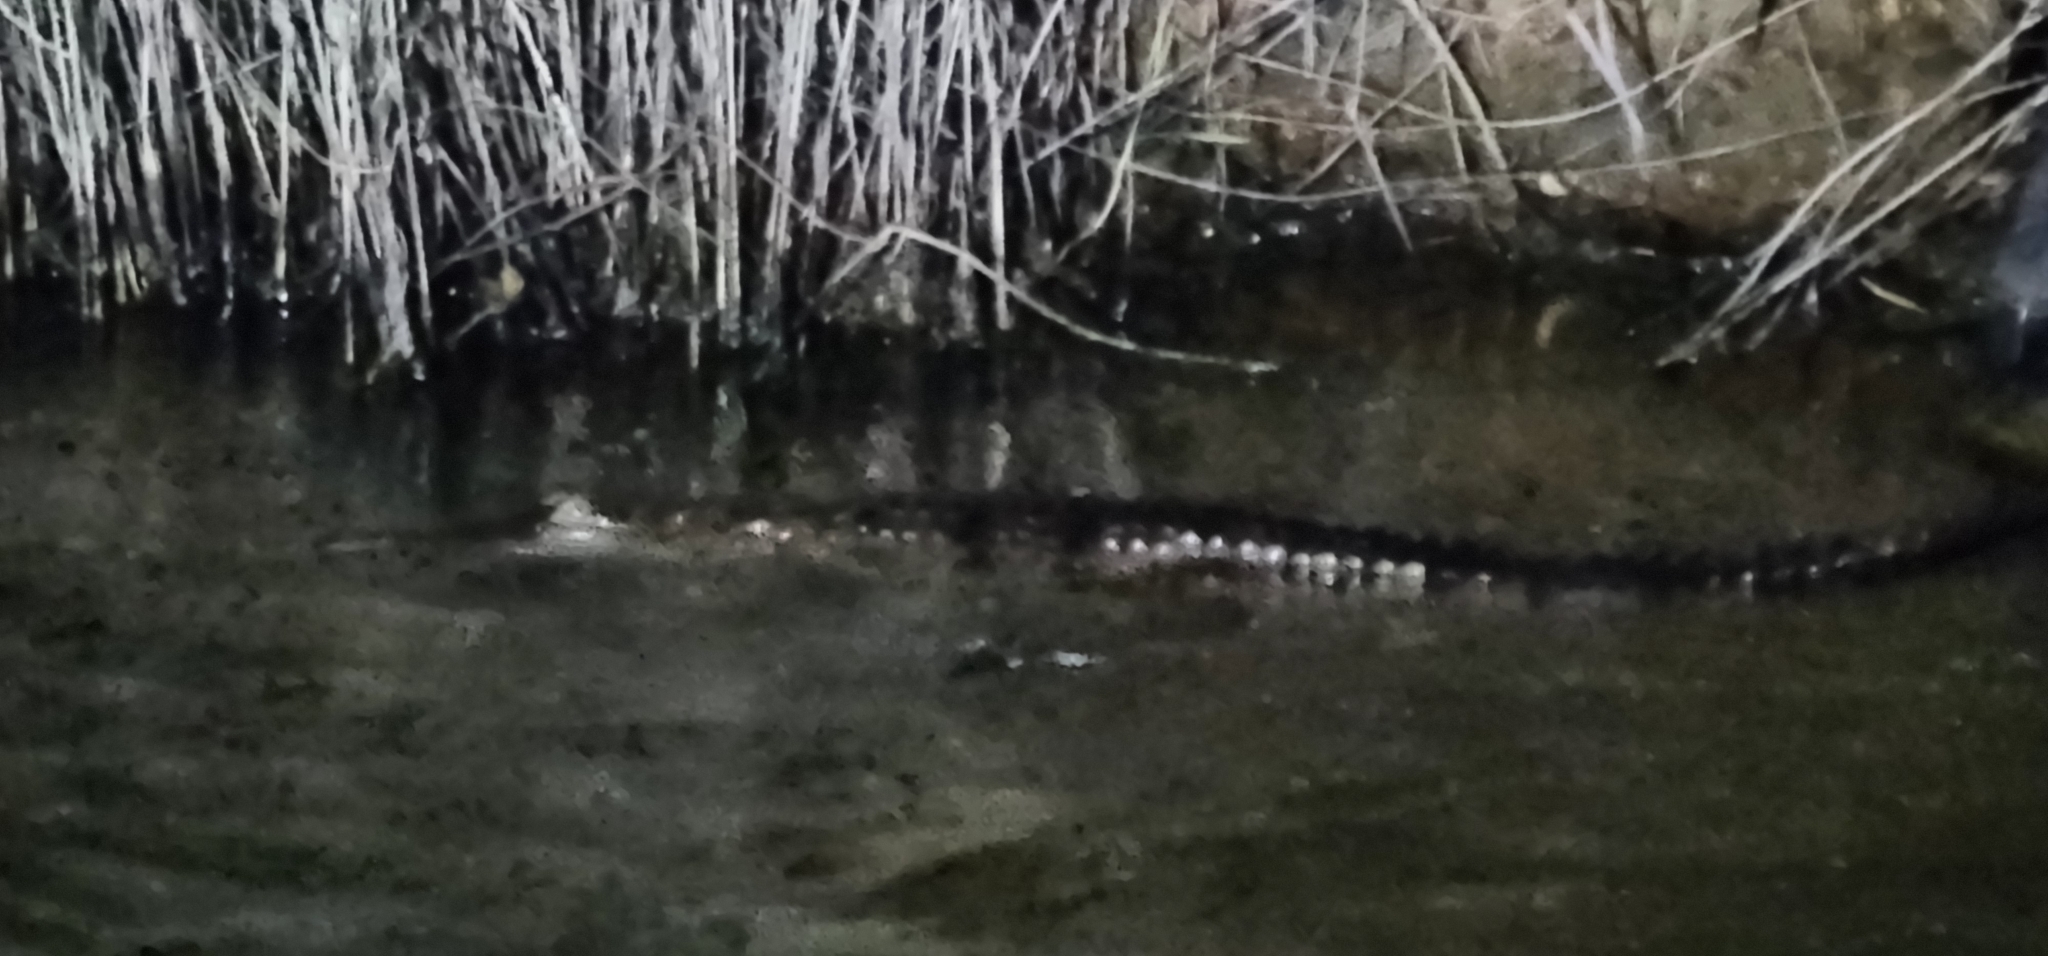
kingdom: Animalia
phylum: Chordata
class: Crocodylia
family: Crocodylidae
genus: Crocodylus
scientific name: Crocodylus johnsoni
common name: Freshwater crocodile
